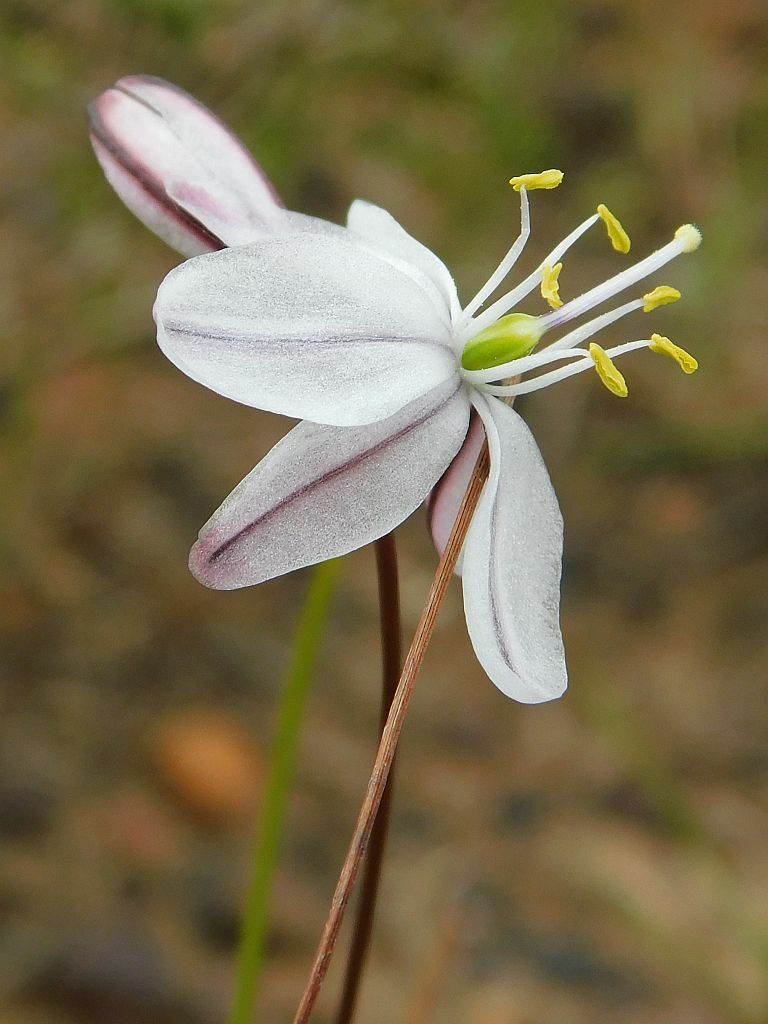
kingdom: Plantae
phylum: Tracheophyta
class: Liliopsida
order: Asparagales
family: Asparagaceae
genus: Drimia
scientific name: Drimia exuviata
